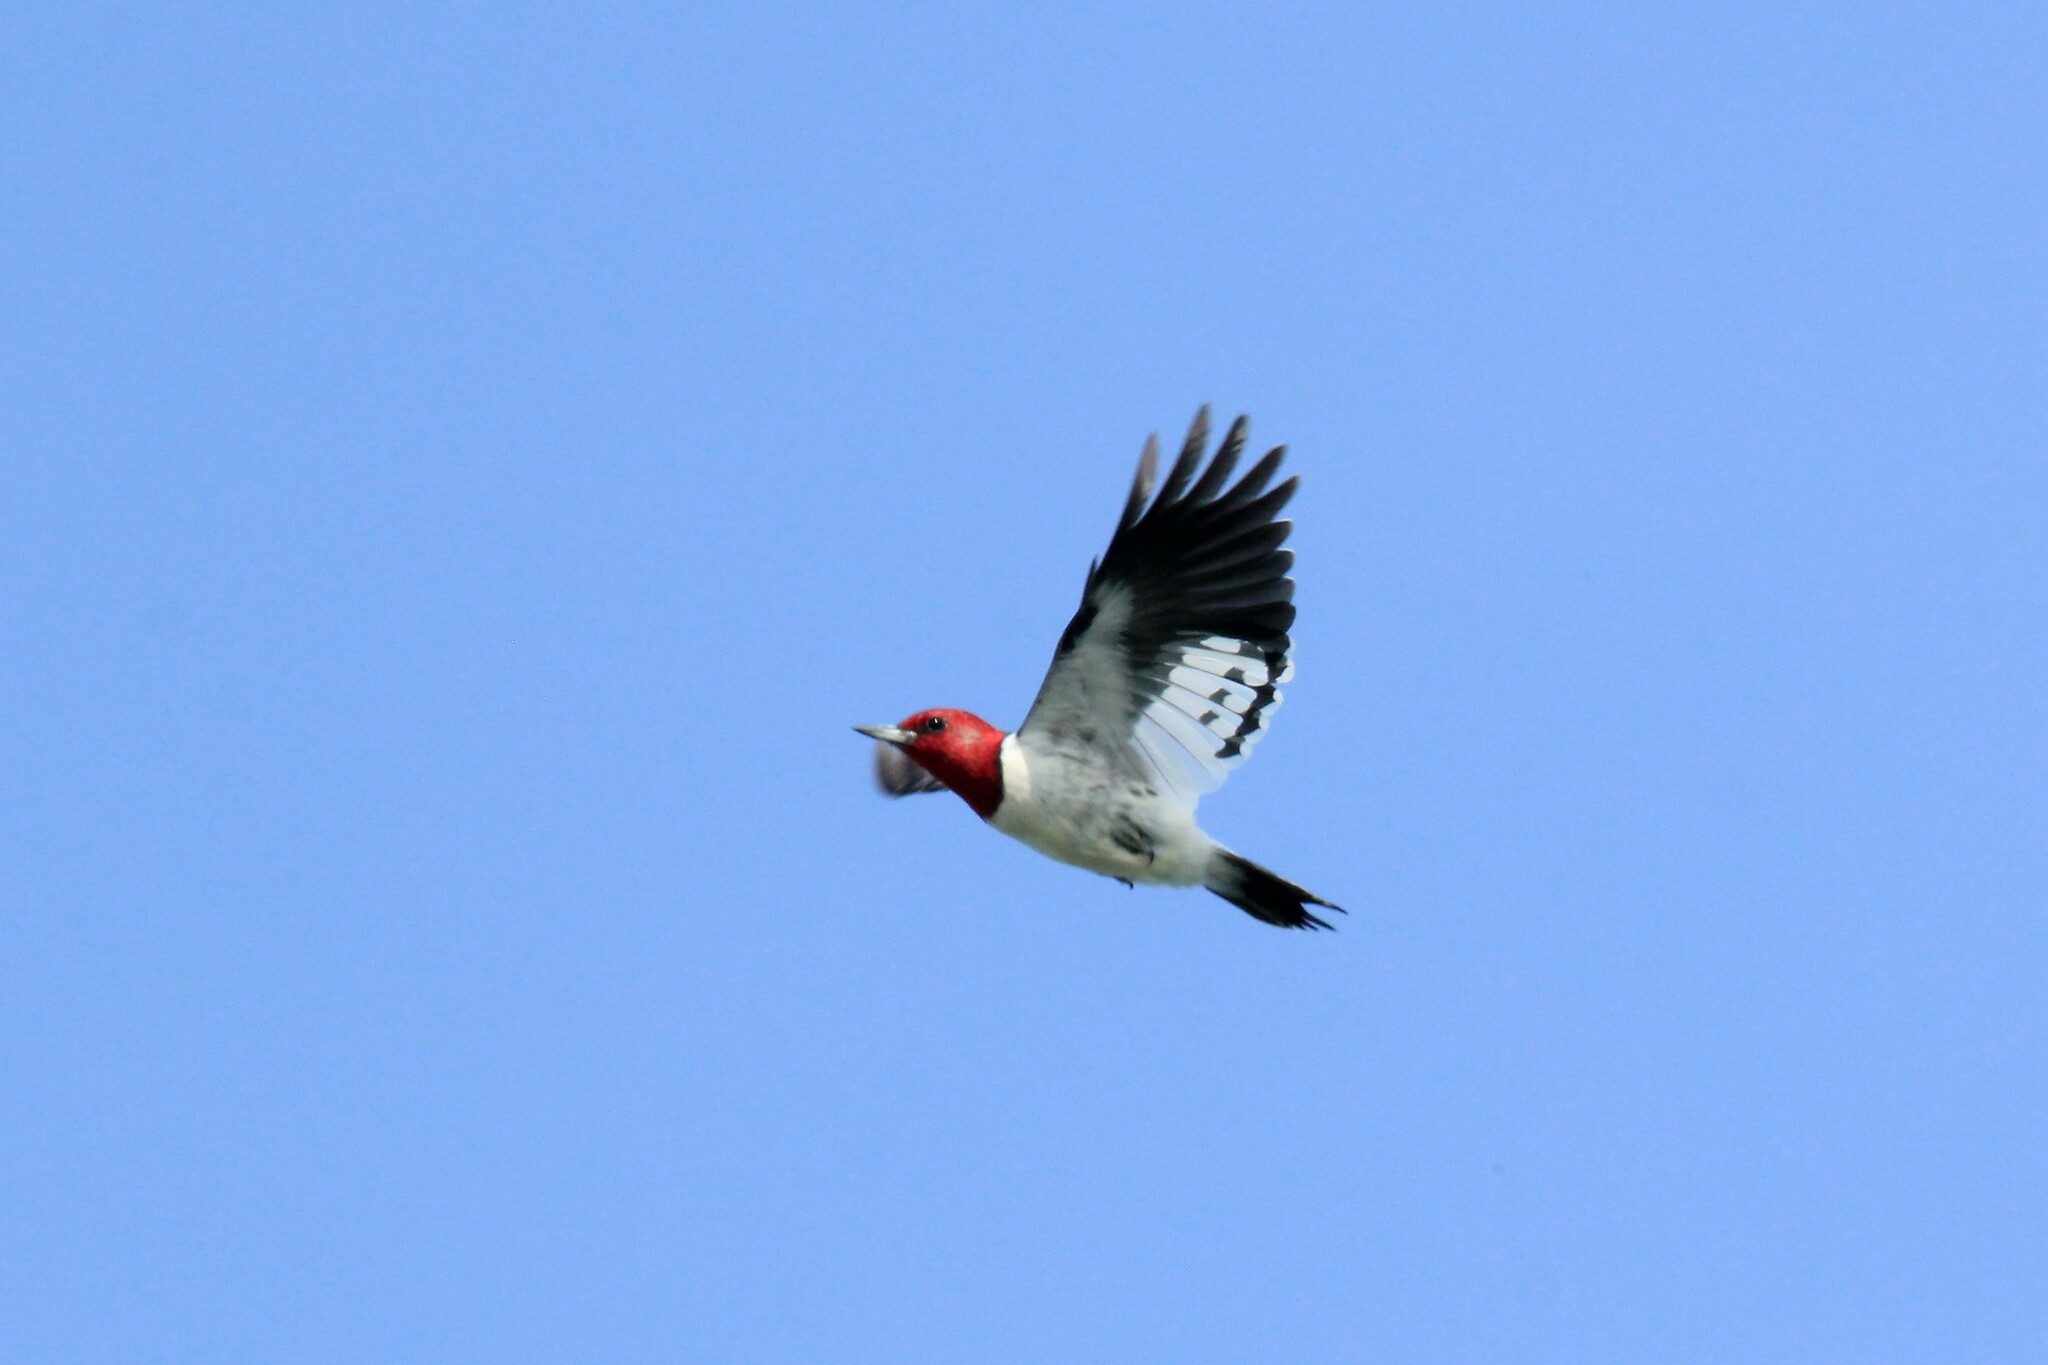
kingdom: Animalia
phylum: Chordata
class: Aves
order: Piciformes
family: Picidae
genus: Melanerpes
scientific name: Melanerpes erythrocephalus
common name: Red-headed woodpecker
